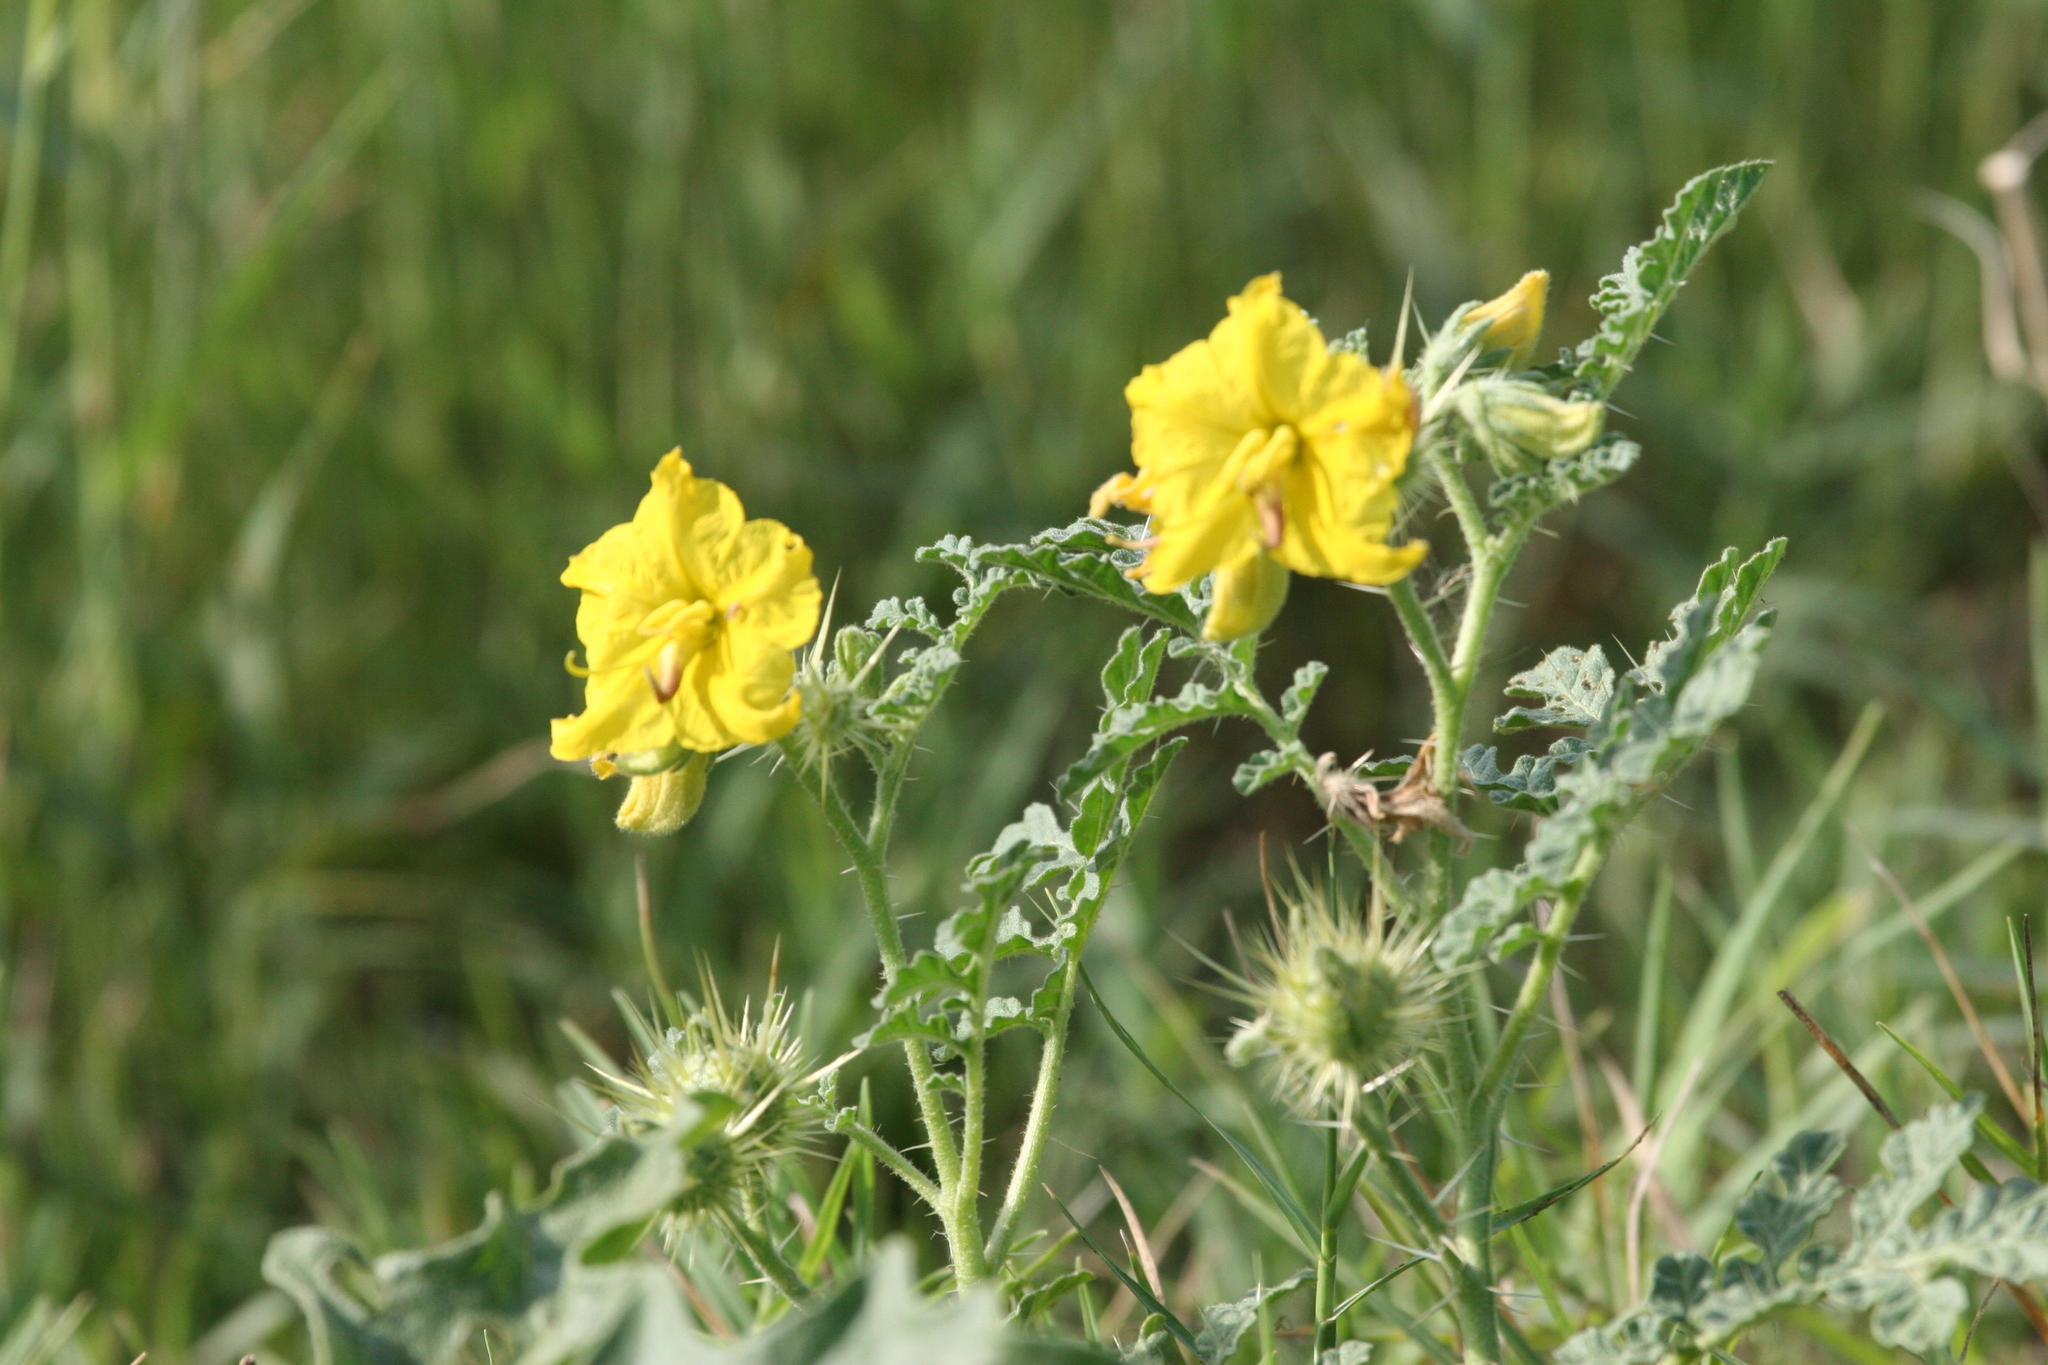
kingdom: Plantae
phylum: Tracheophyta
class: Magnoliopsida
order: Solanales
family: Solanaceae
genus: Solanum
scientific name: Solanum angustifolium
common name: Buffalobur nightshade
